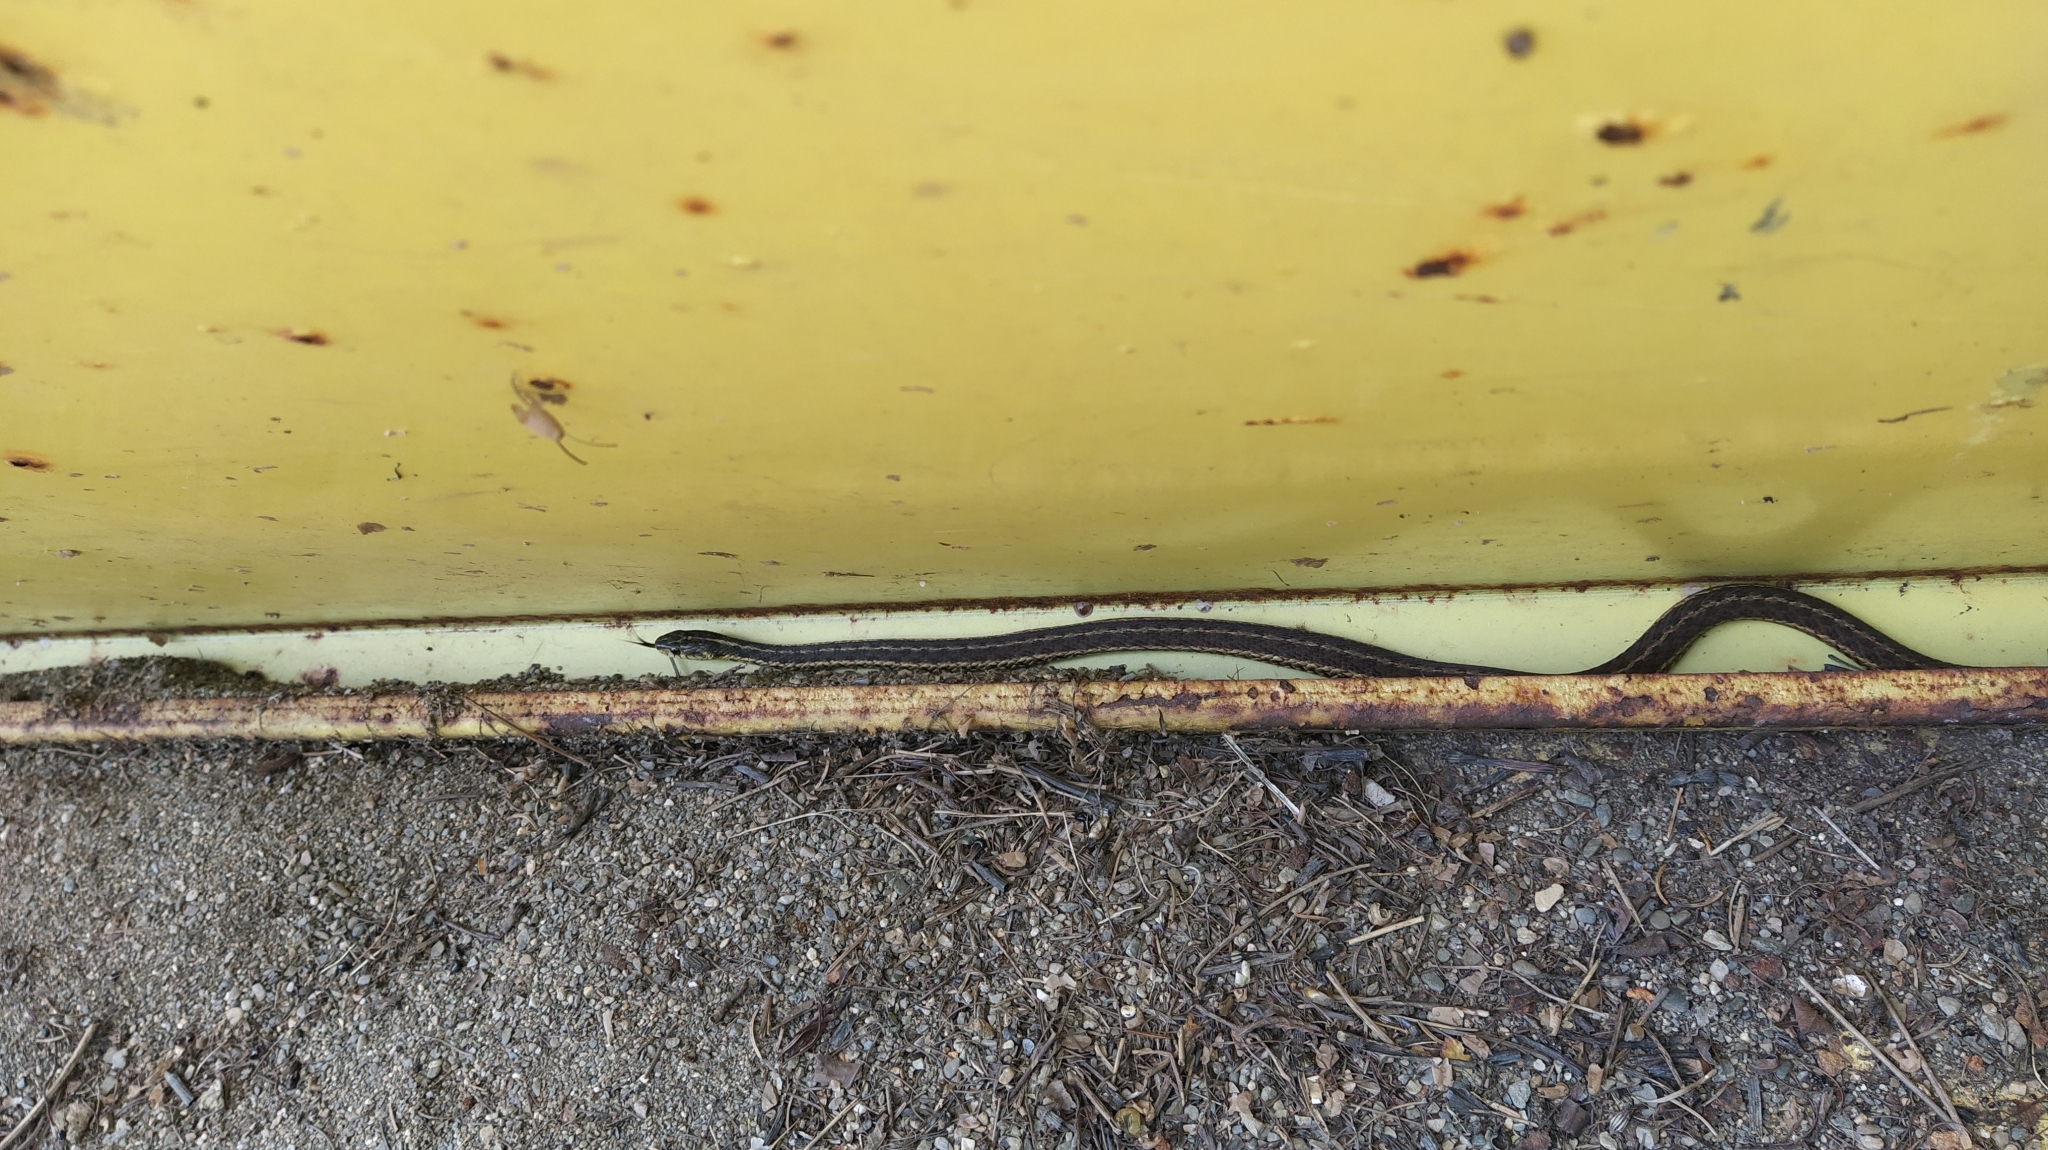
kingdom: Animalia
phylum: Chordata
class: Squamata
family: Colubridae
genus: Thamnophis
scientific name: Thamnophis sirtalis
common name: Common garter snake
